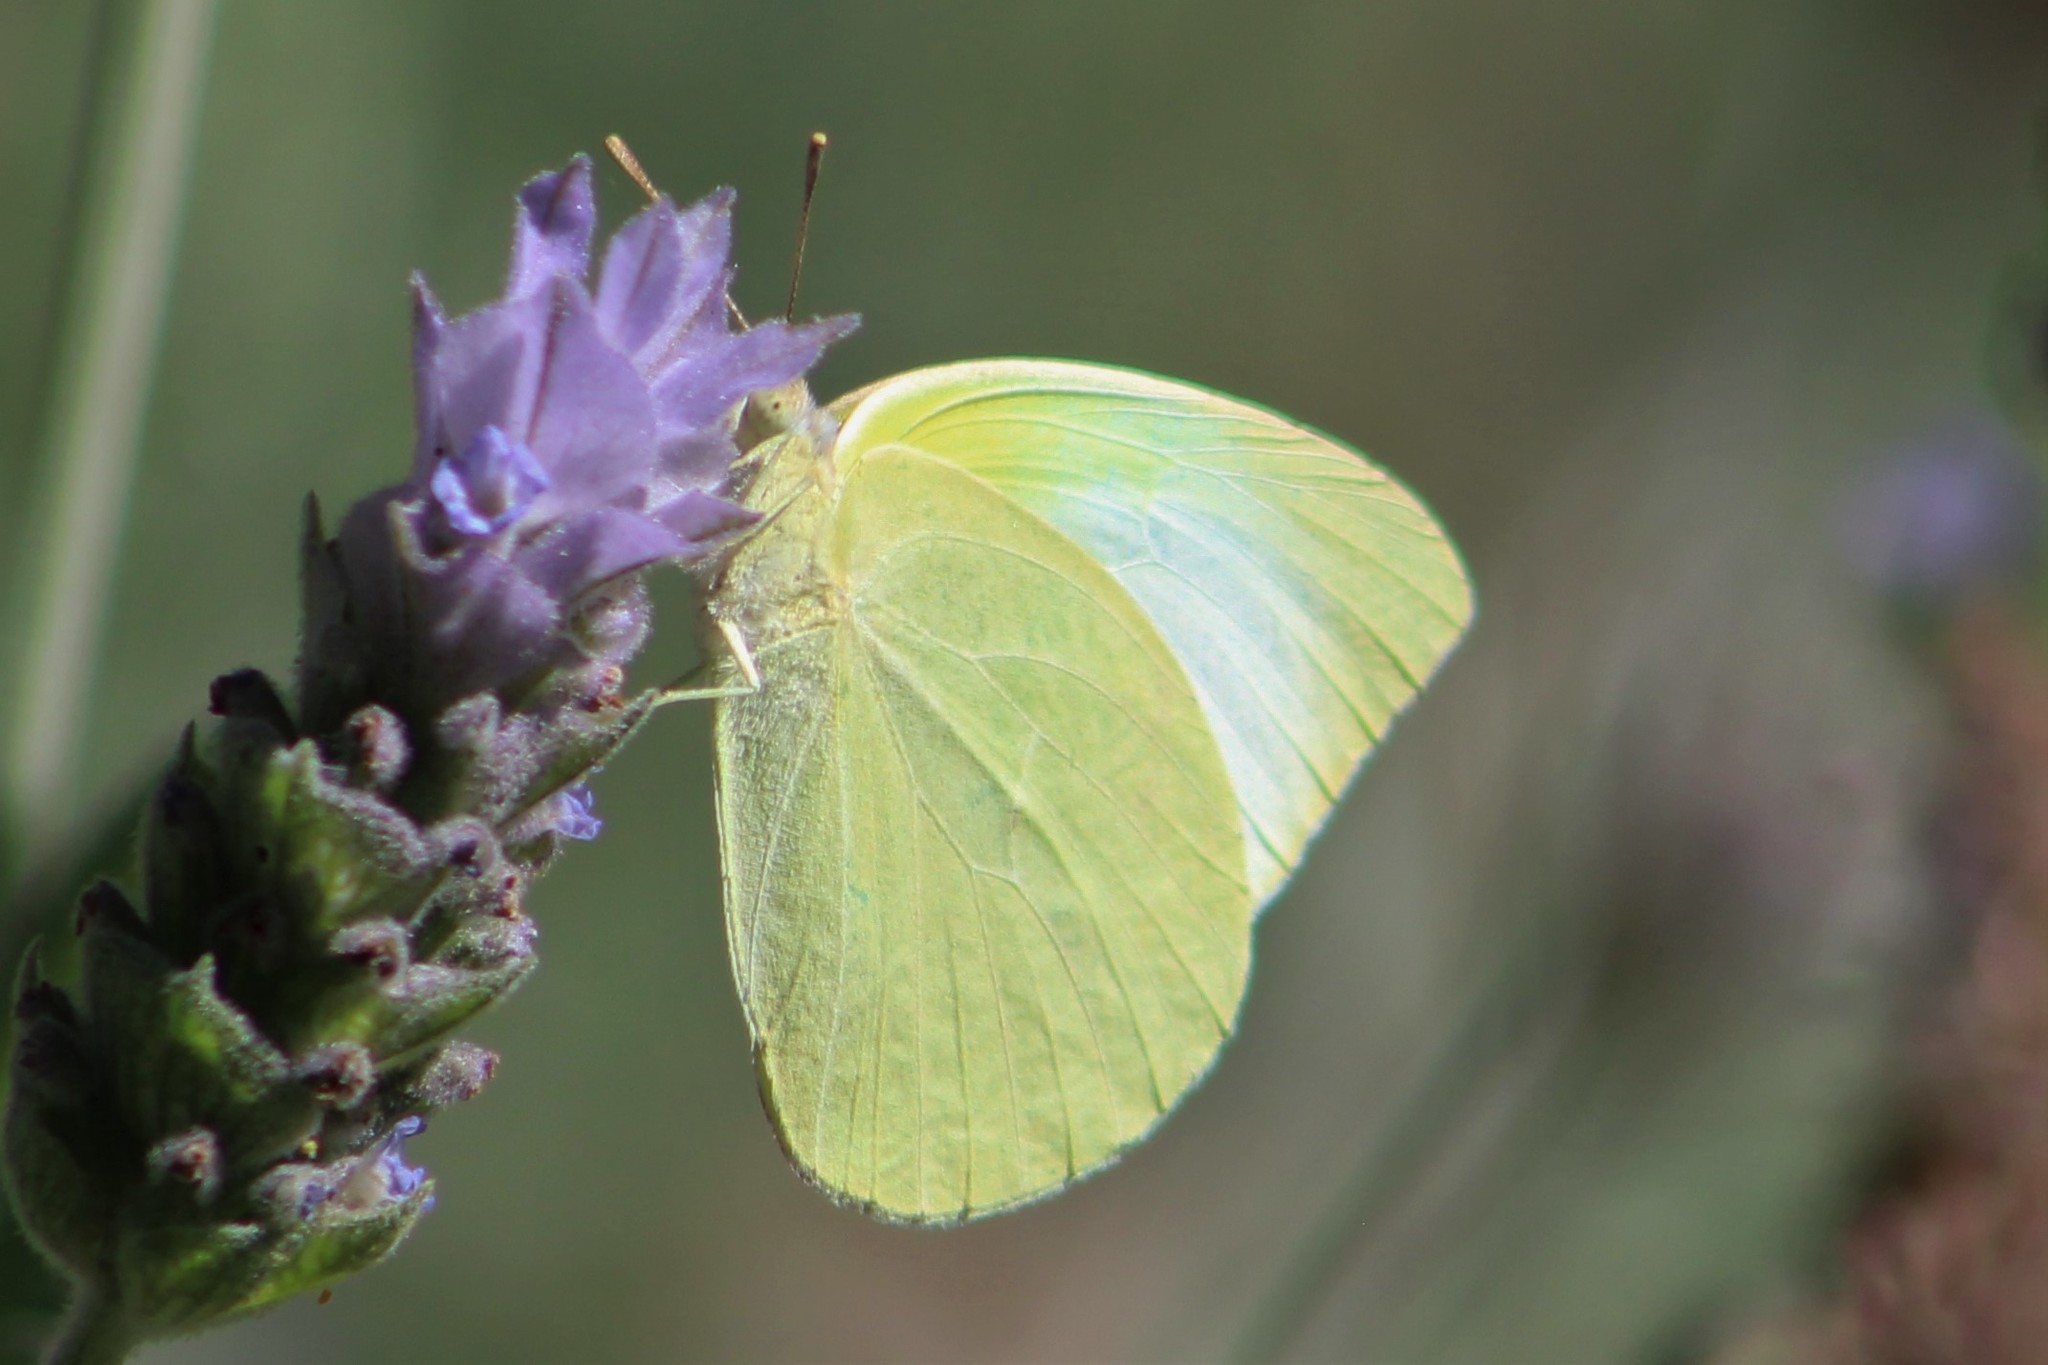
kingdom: Animalia
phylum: Arthropoda
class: Insecta
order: Lepidoptera
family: Pieridae
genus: Kricogonia
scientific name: Kricogonia lyside
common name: Guayacan sulphur,
